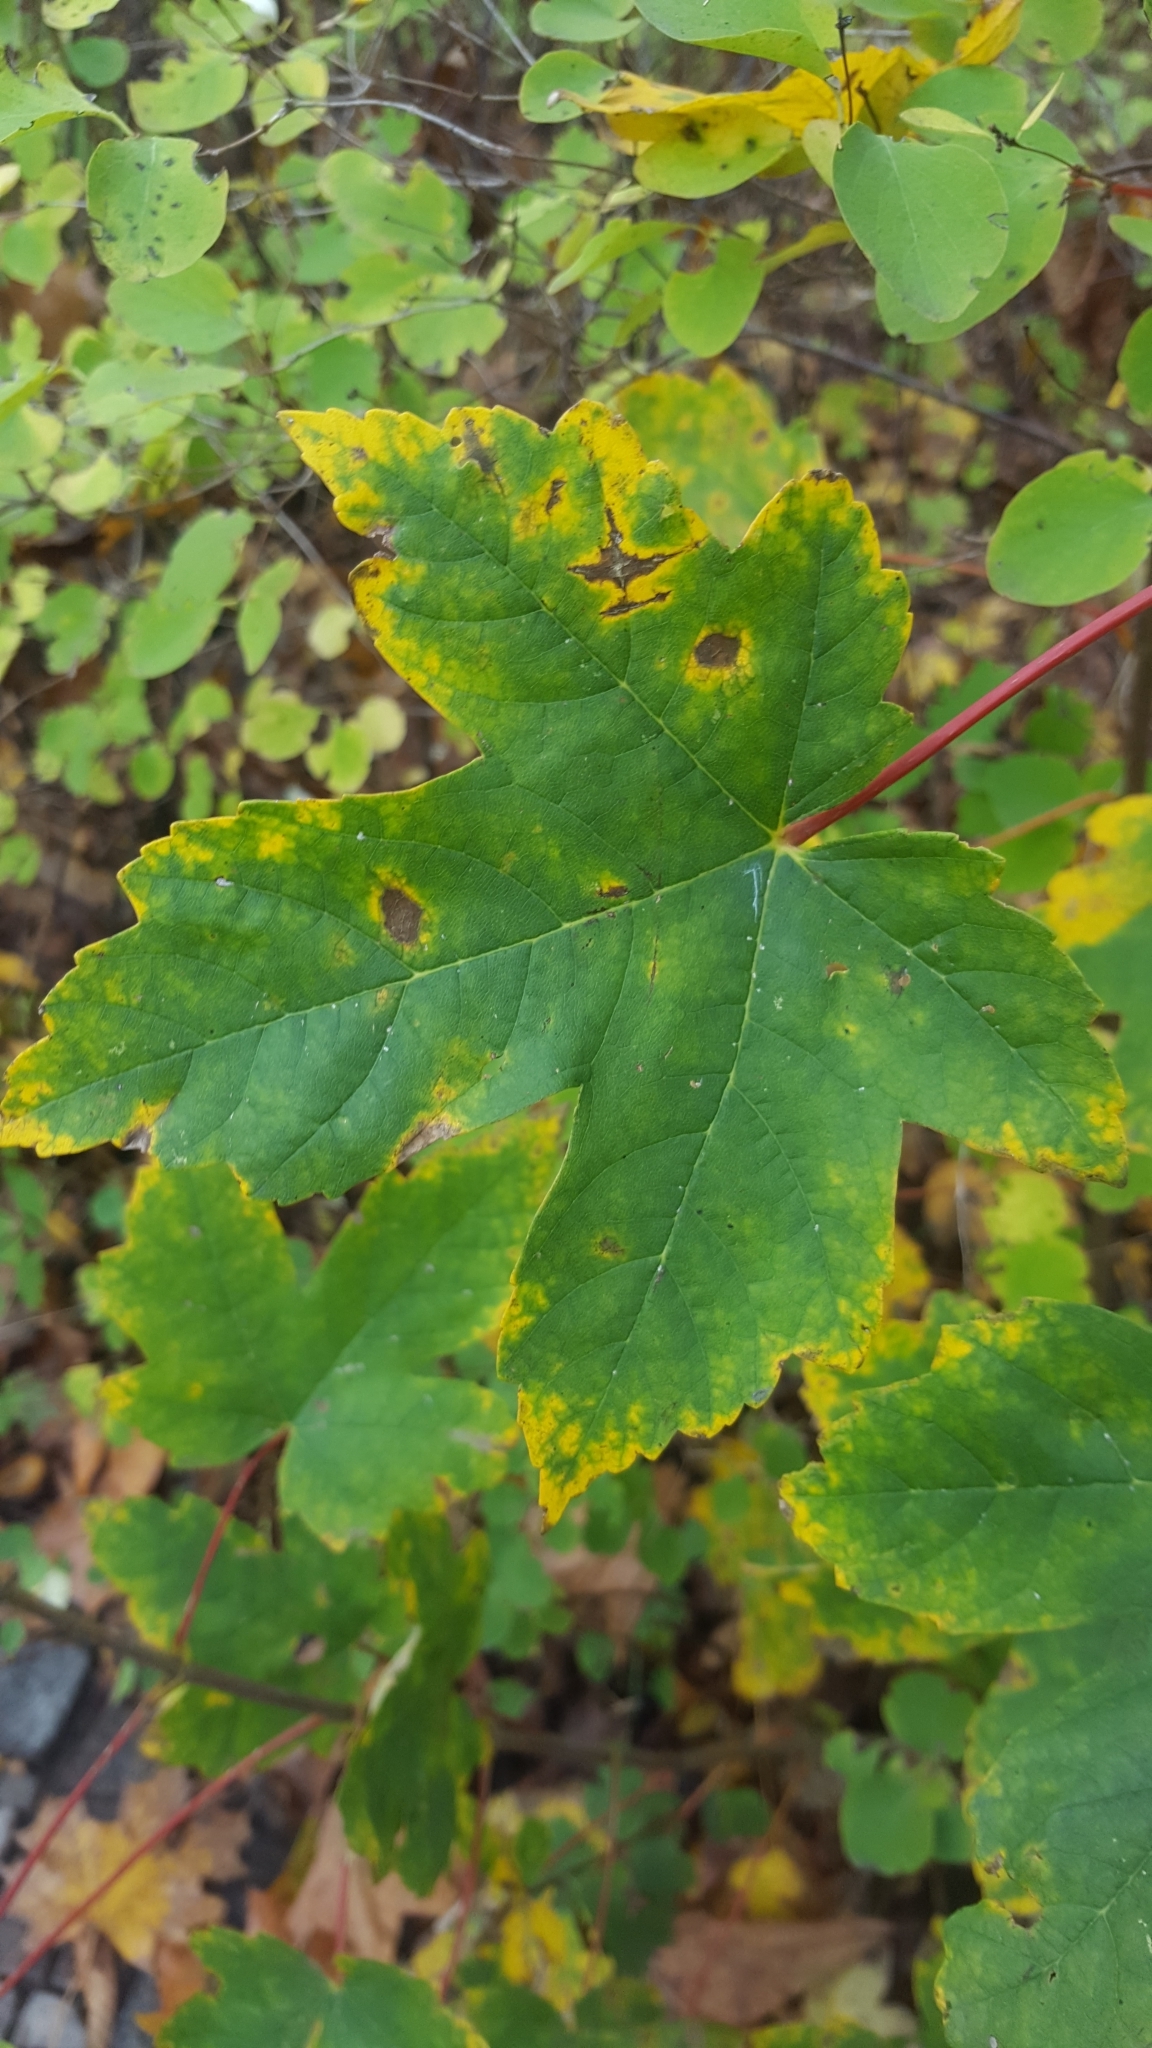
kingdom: Plantae
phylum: Tracheophyta
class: Magnoliopsida
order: Sapindales
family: Sapindaceae
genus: Acer
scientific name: Acer pseudoplatanus
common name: Sycamore
